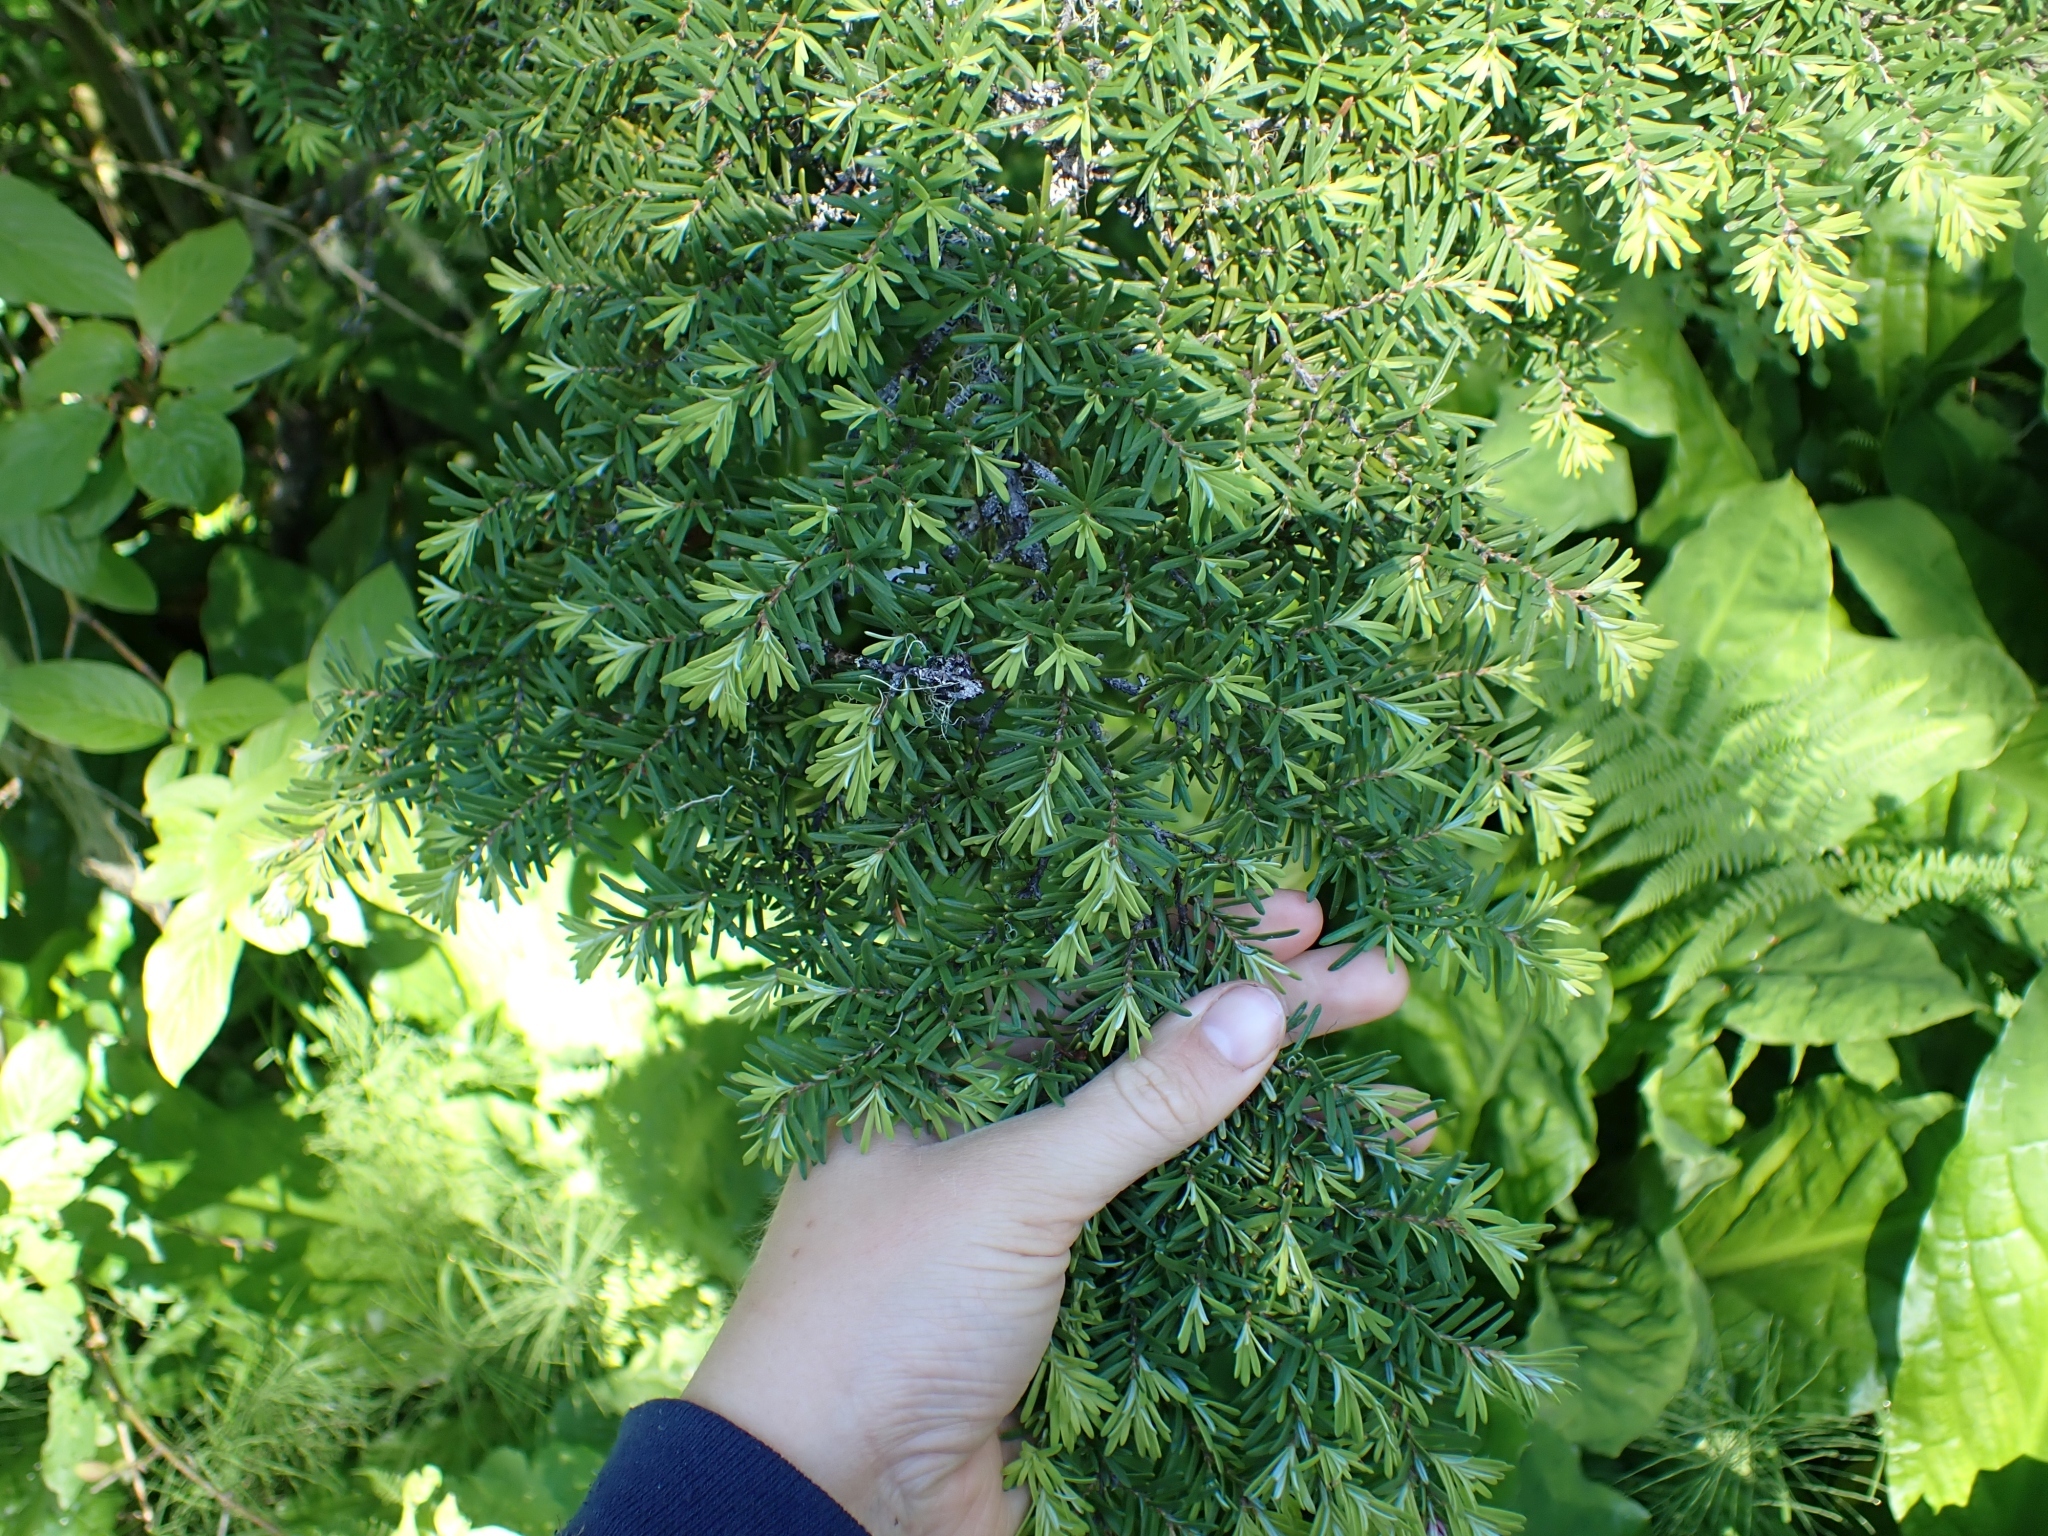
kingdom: Plantae
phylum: Tracheophyta
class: Pinopsida
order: Pinales
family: Pinaceae
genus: Tsuga
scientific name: Tsuga heterophylla
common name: Western hemlock
